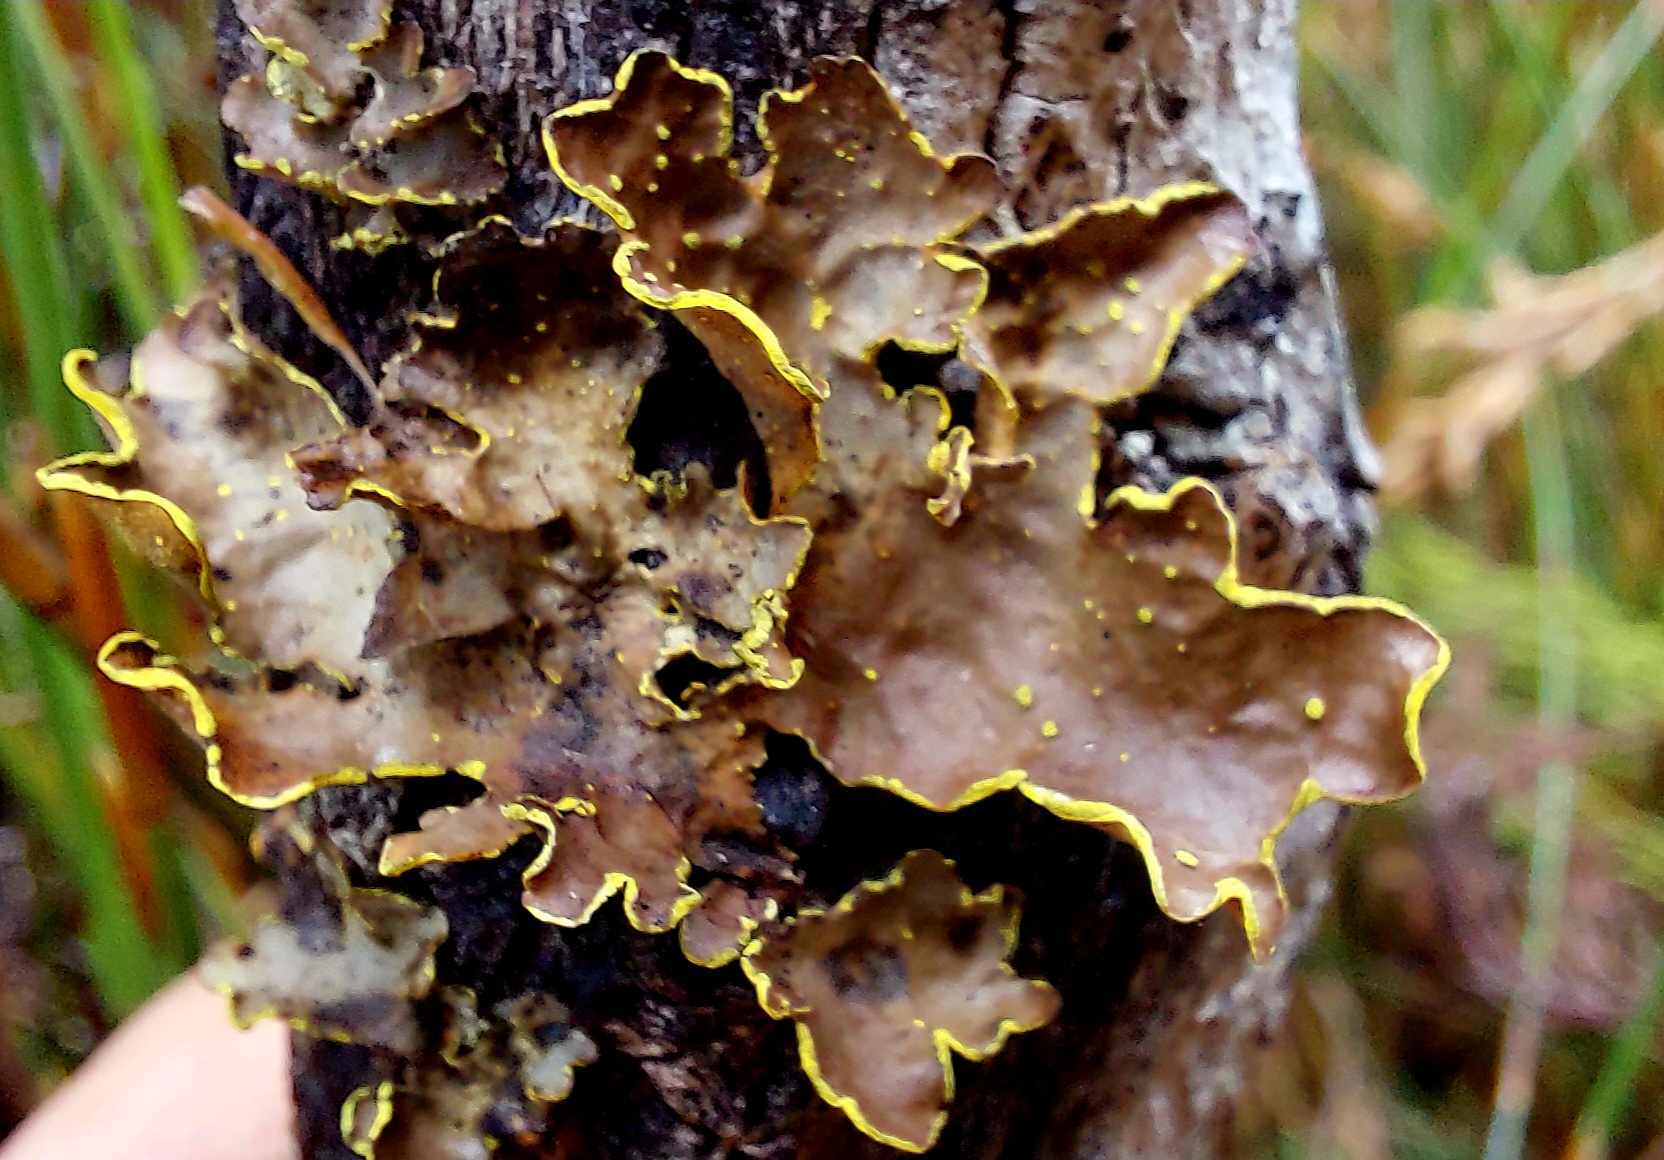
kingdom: Fungi
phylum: Ascomycota
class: Lecanoromycetes
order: Peltigerales
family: Lobariaceae
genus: Pseudocyphellaria
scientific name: Pseudocyphellaria crocata
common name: Golden specklebelly
